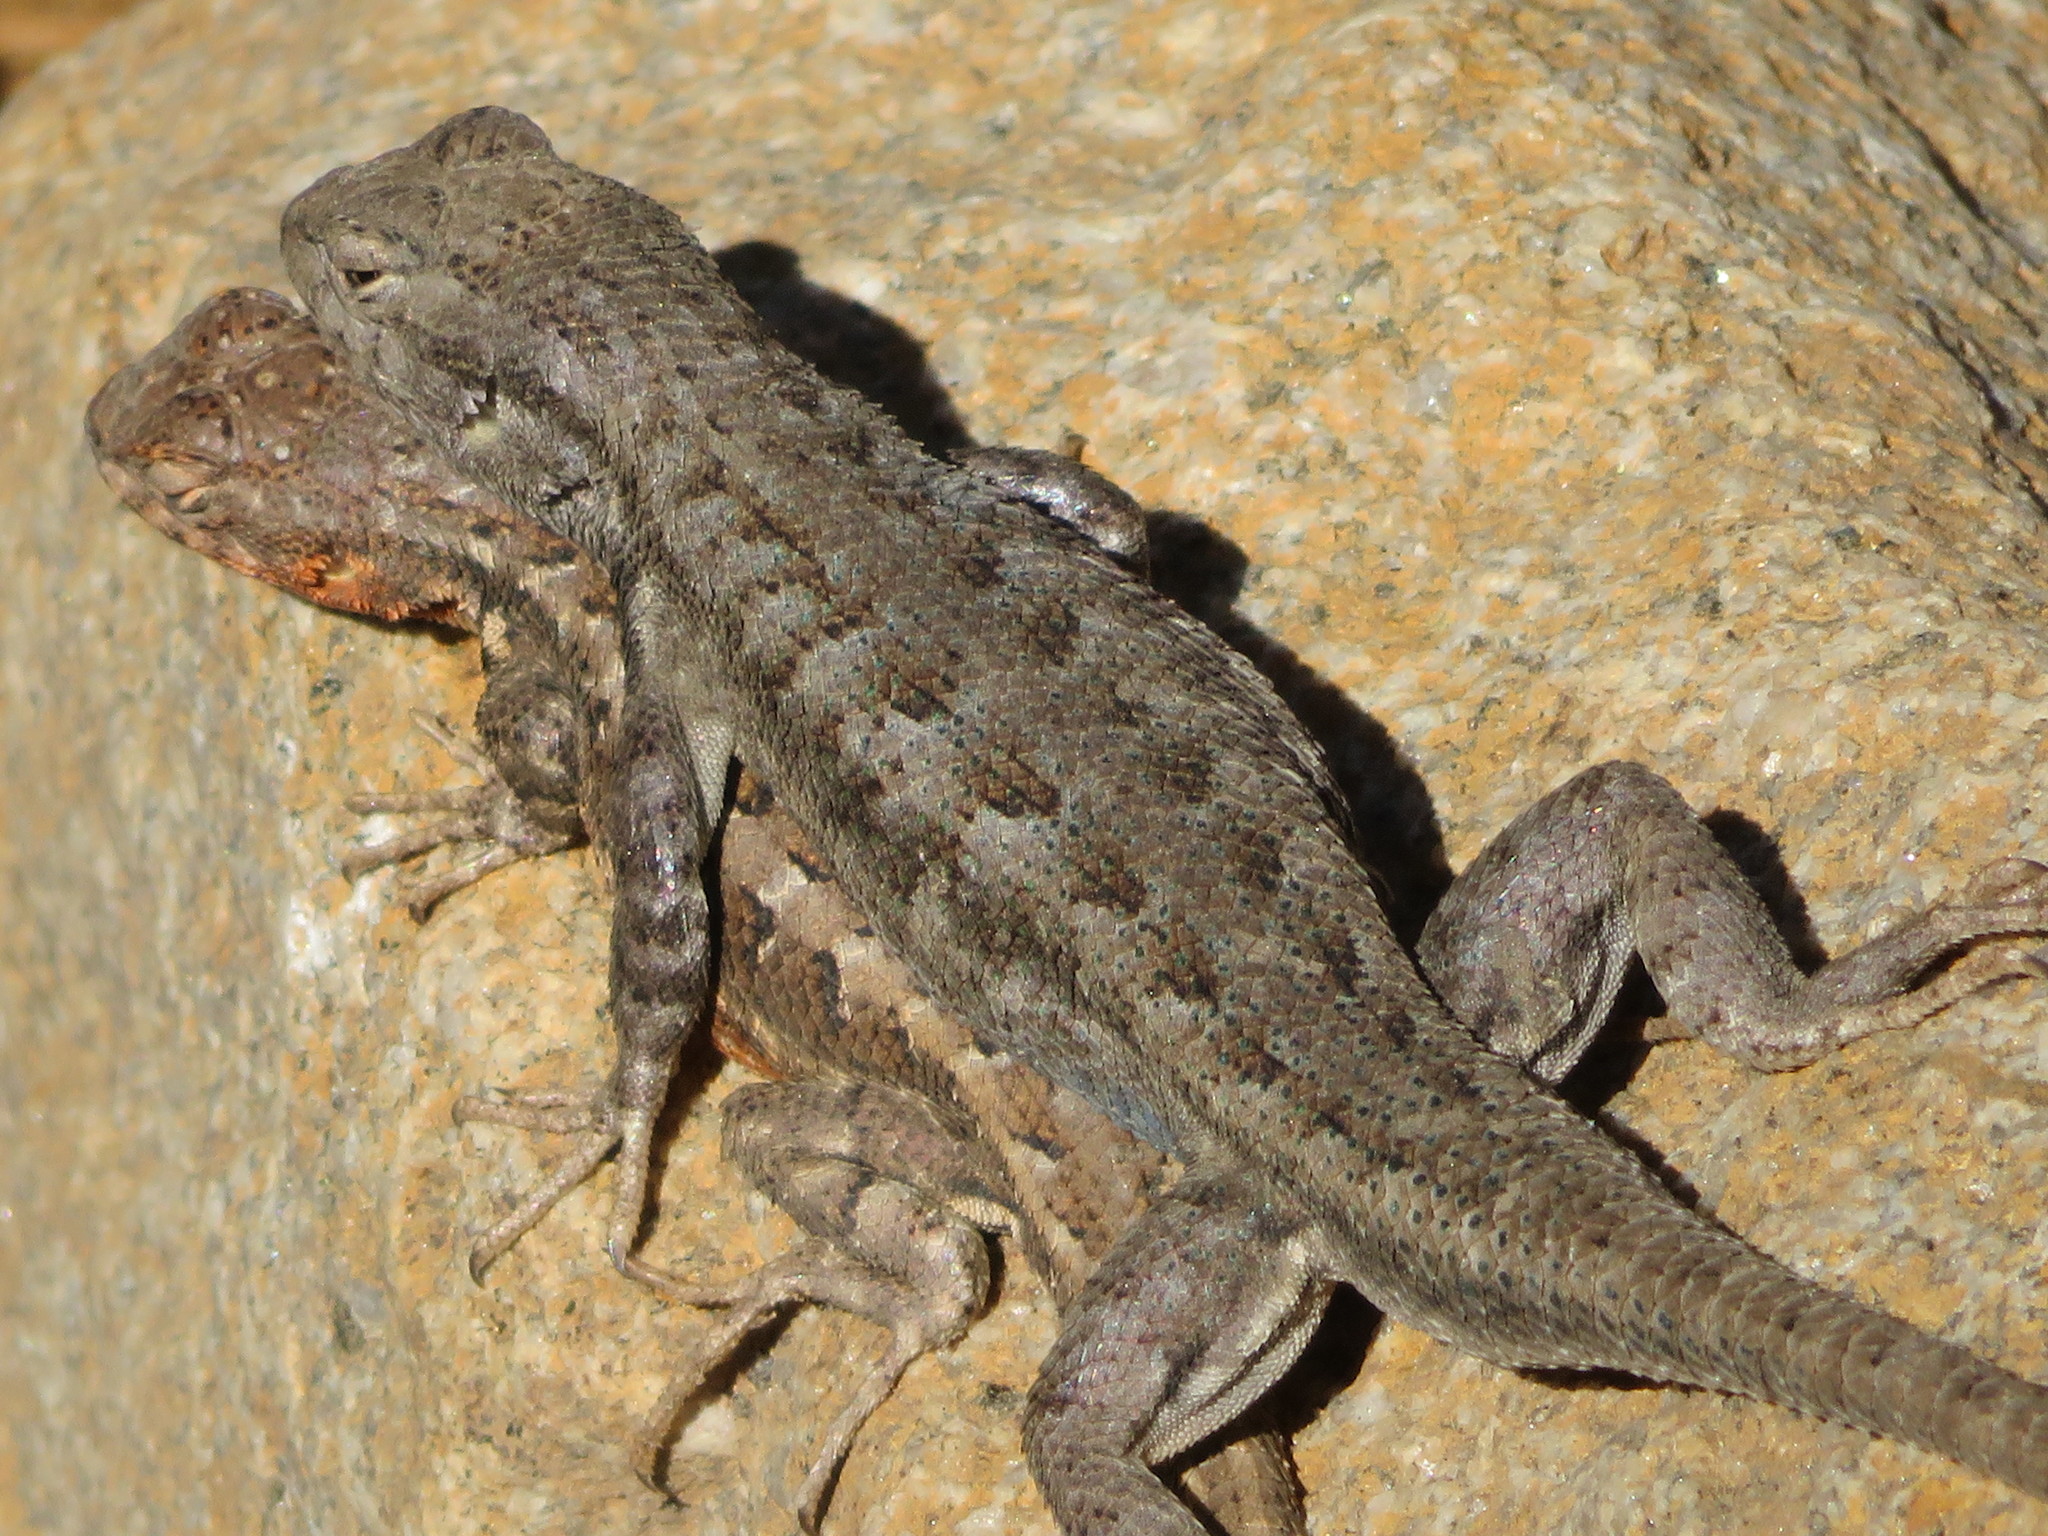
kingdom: Animalia
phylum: Chordata
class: Squamata
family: Phrynosomatidae
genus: Sceloporus
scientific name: Sceloporus graciosus
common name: Sagebrush lizard
